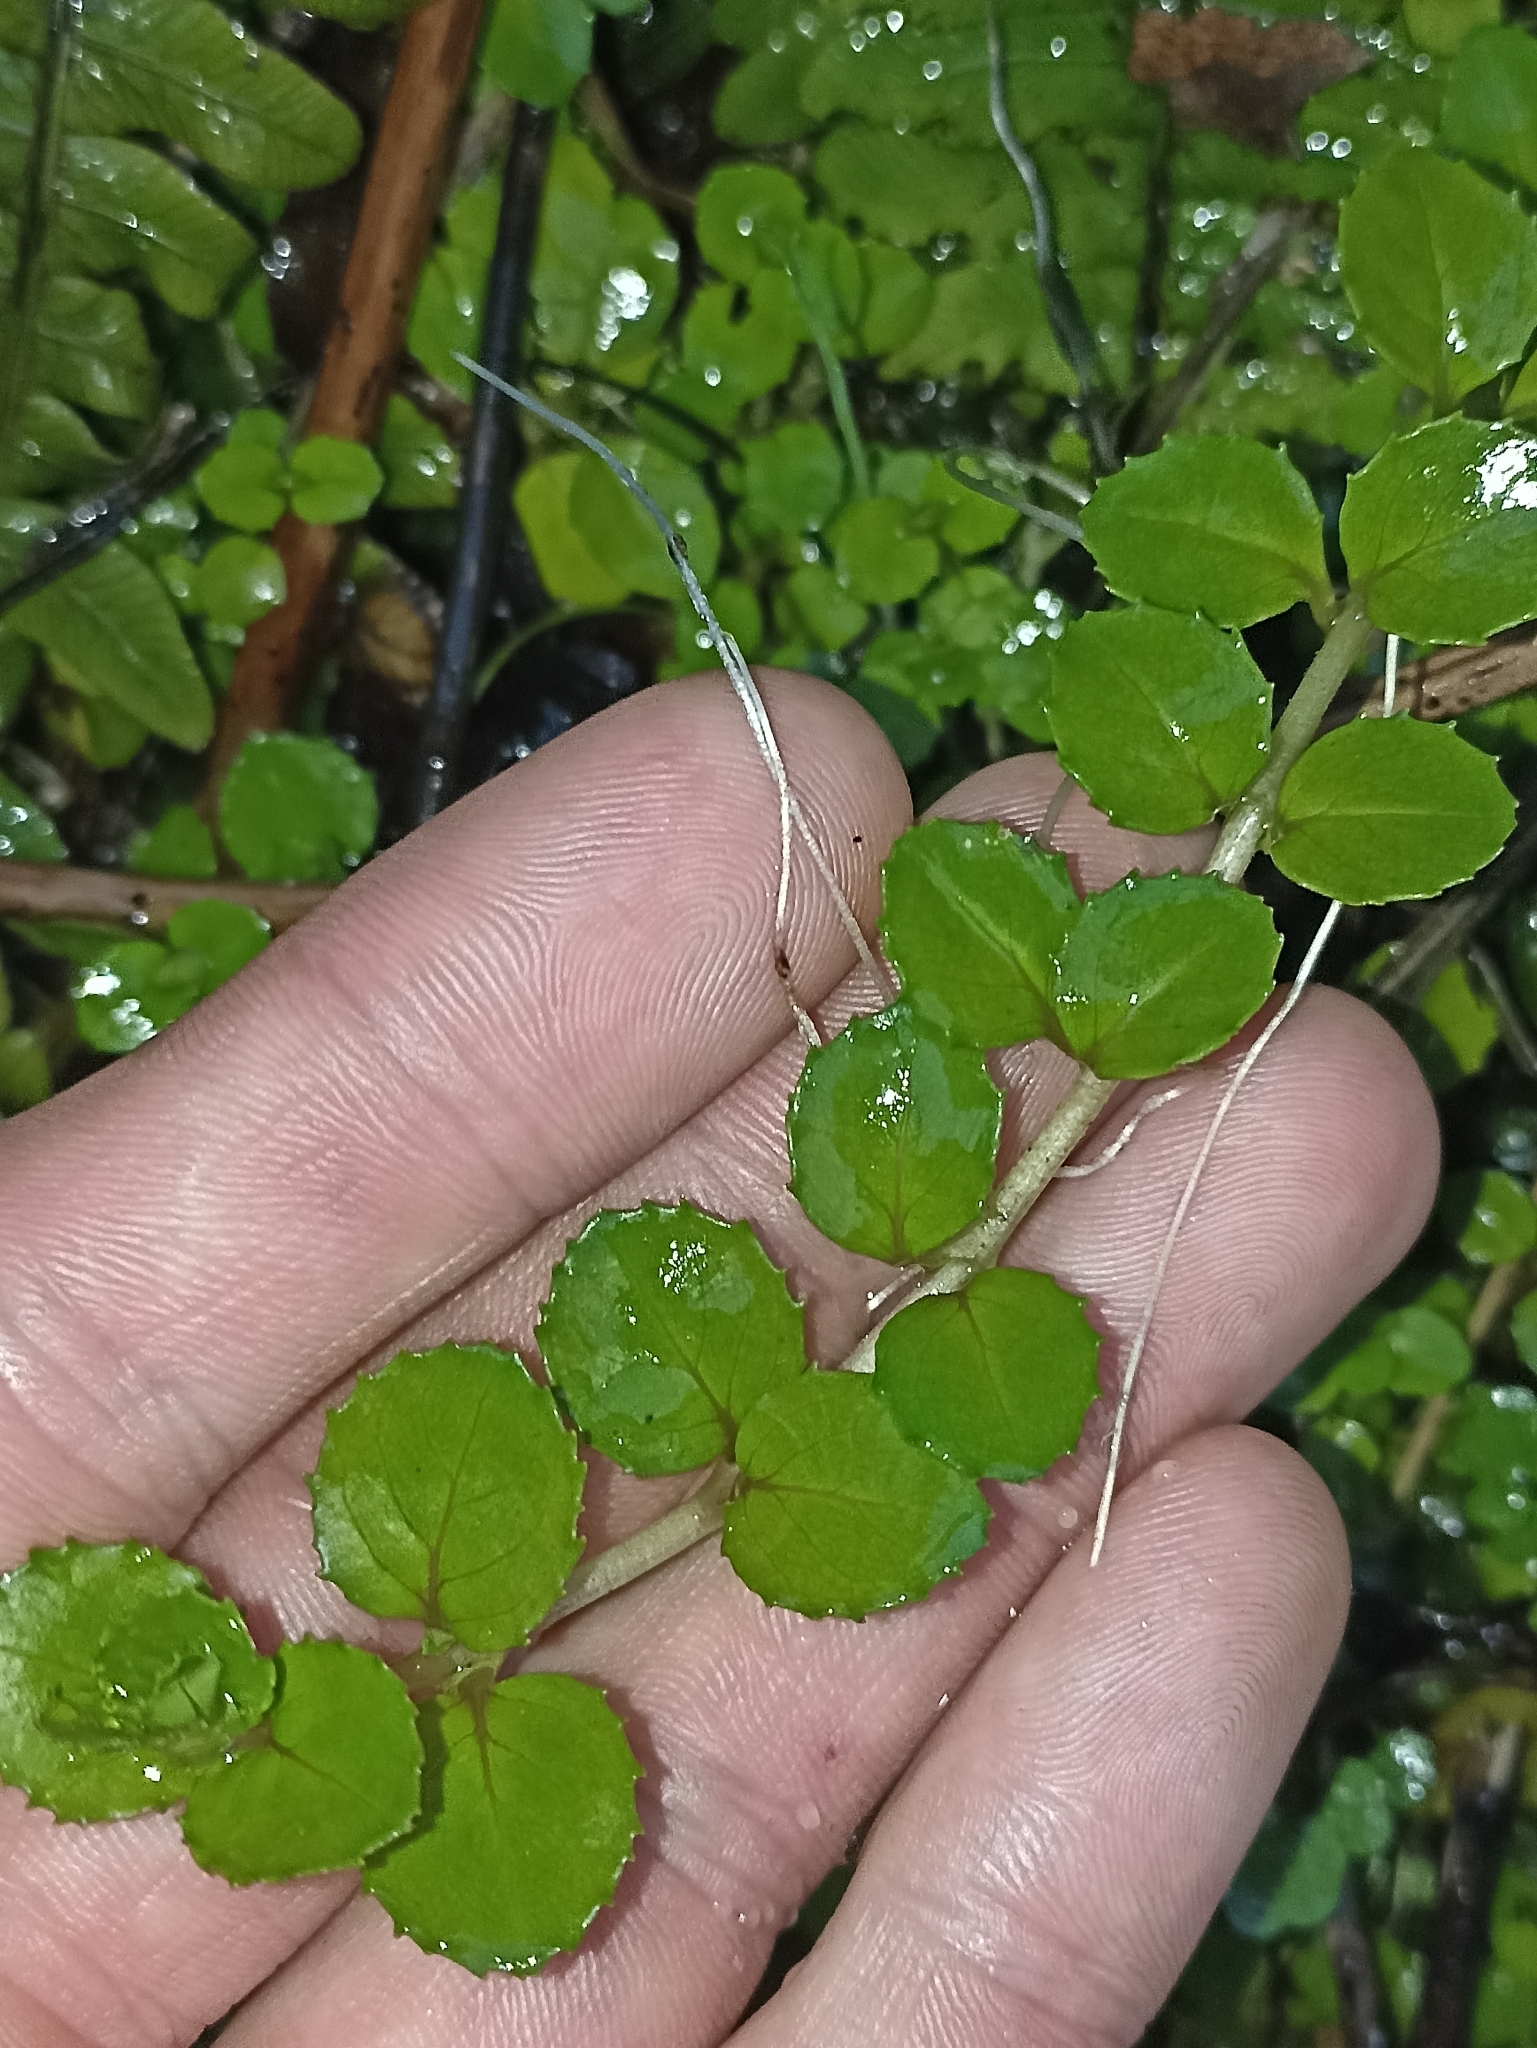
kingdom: Plantae
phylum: Tracheophyta
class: Magnoliopsida
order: Myrtales
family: Onagraceae
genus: Epilobium
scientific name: Epilobium pedunculare
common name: Rockery willowherb
